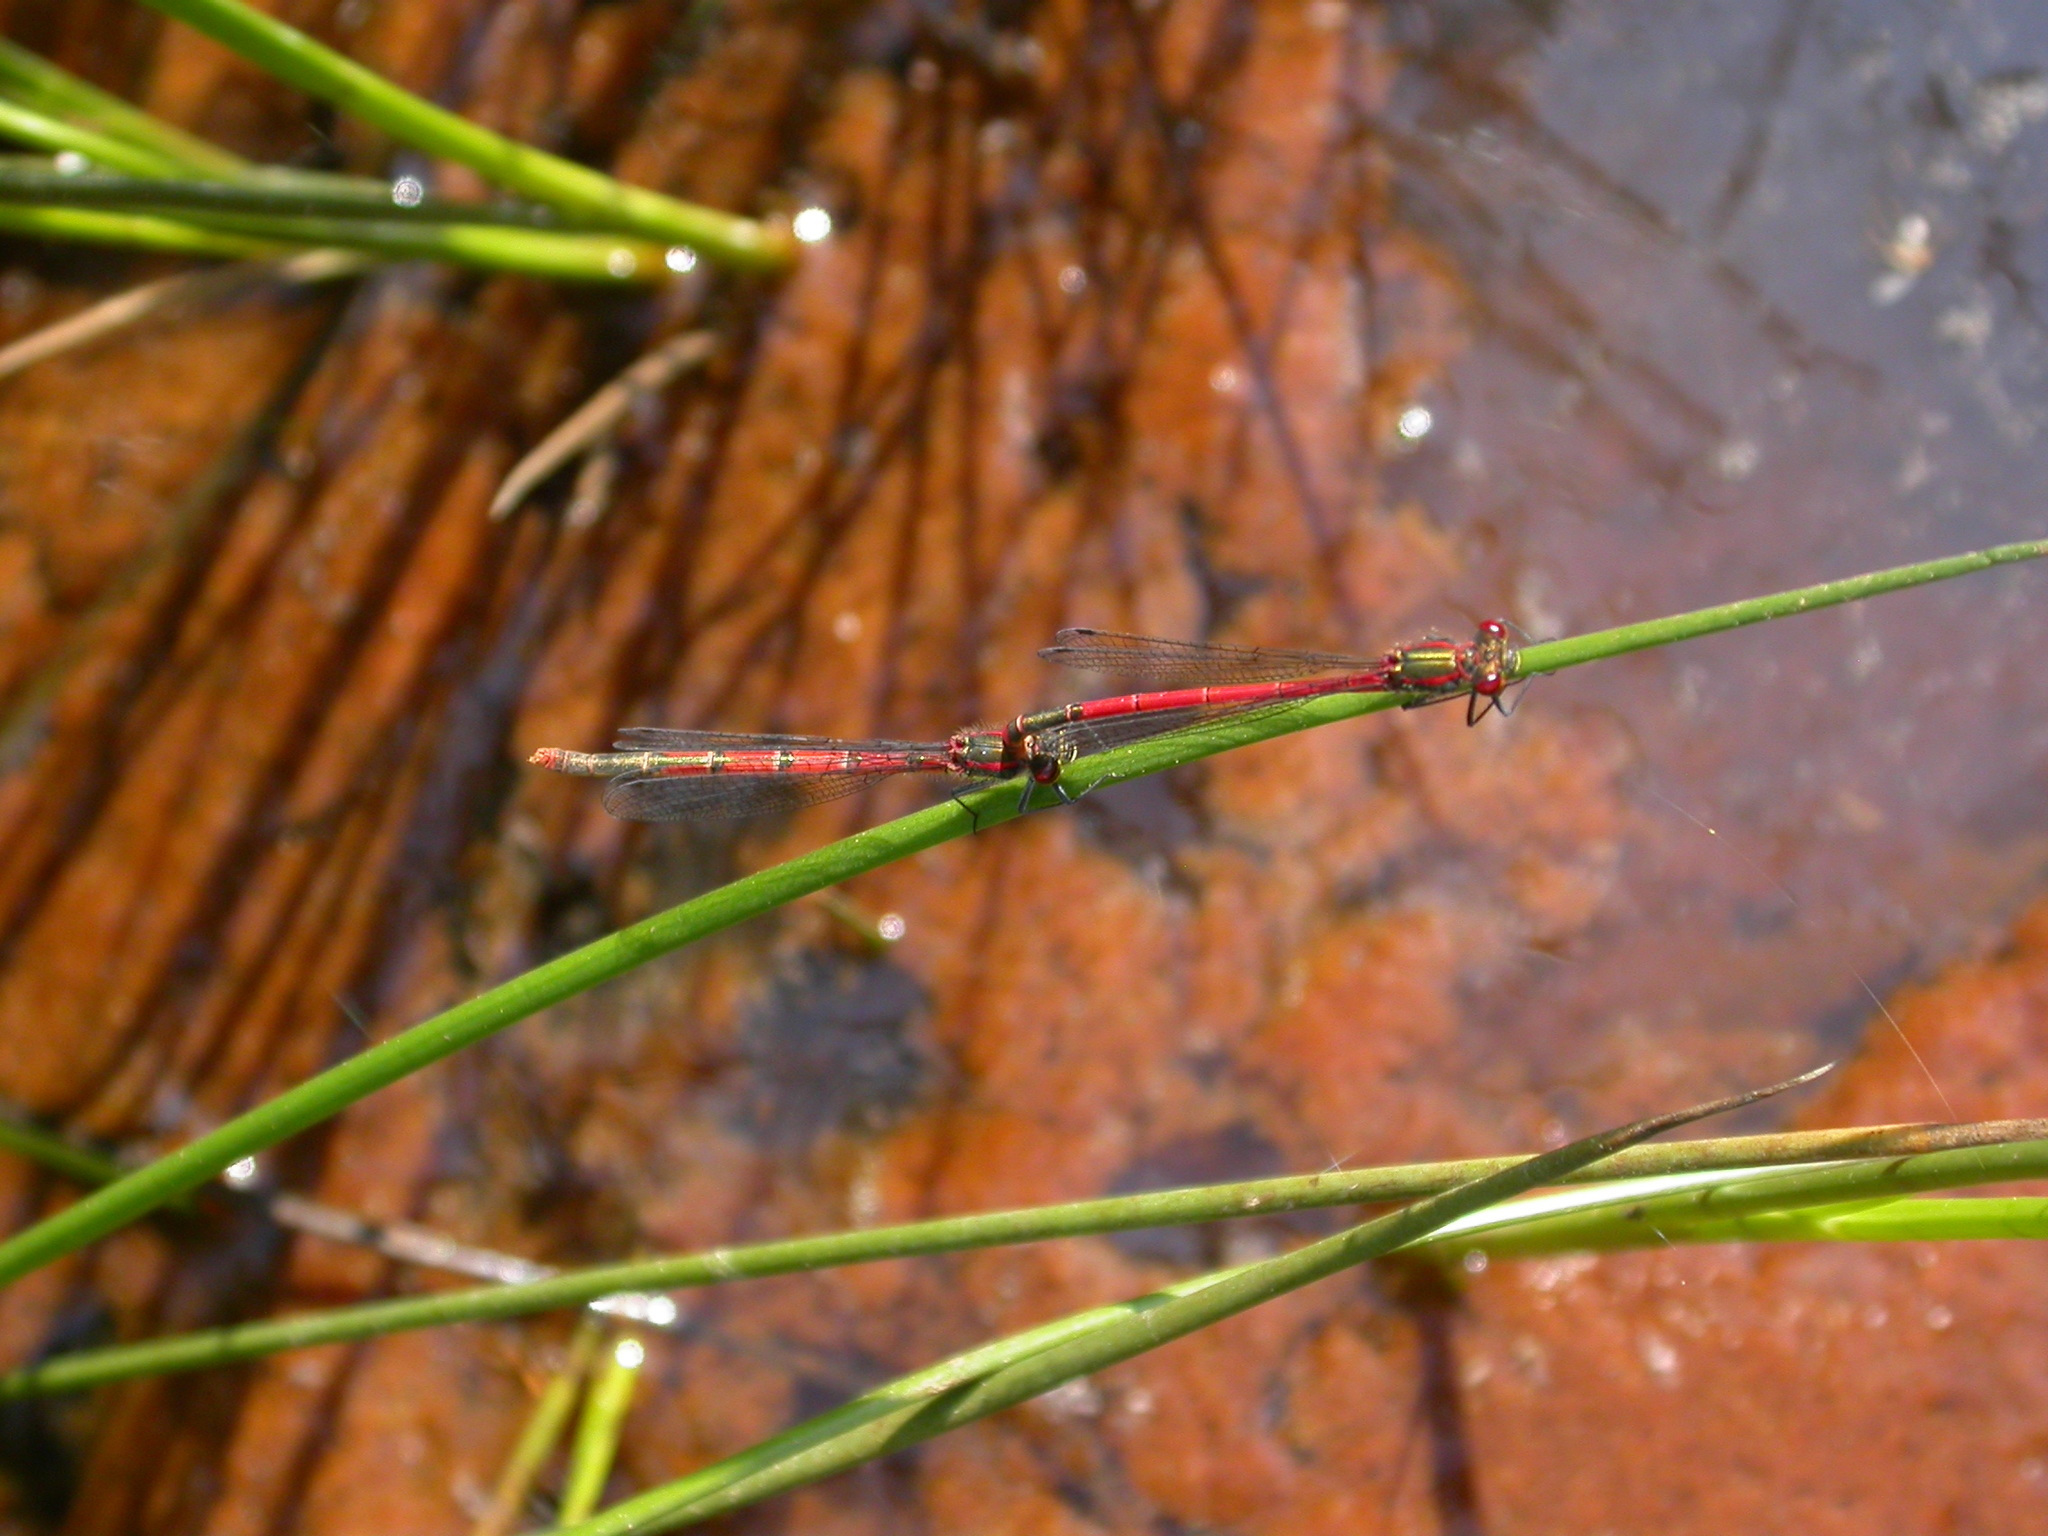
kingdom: Animalia
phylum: Arthropoda
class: Insecta
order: Odonata
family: Coenagrionidae
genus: Pyrrhosoma
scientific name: Pyrrhosoma nymphula
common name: Large red damsel
